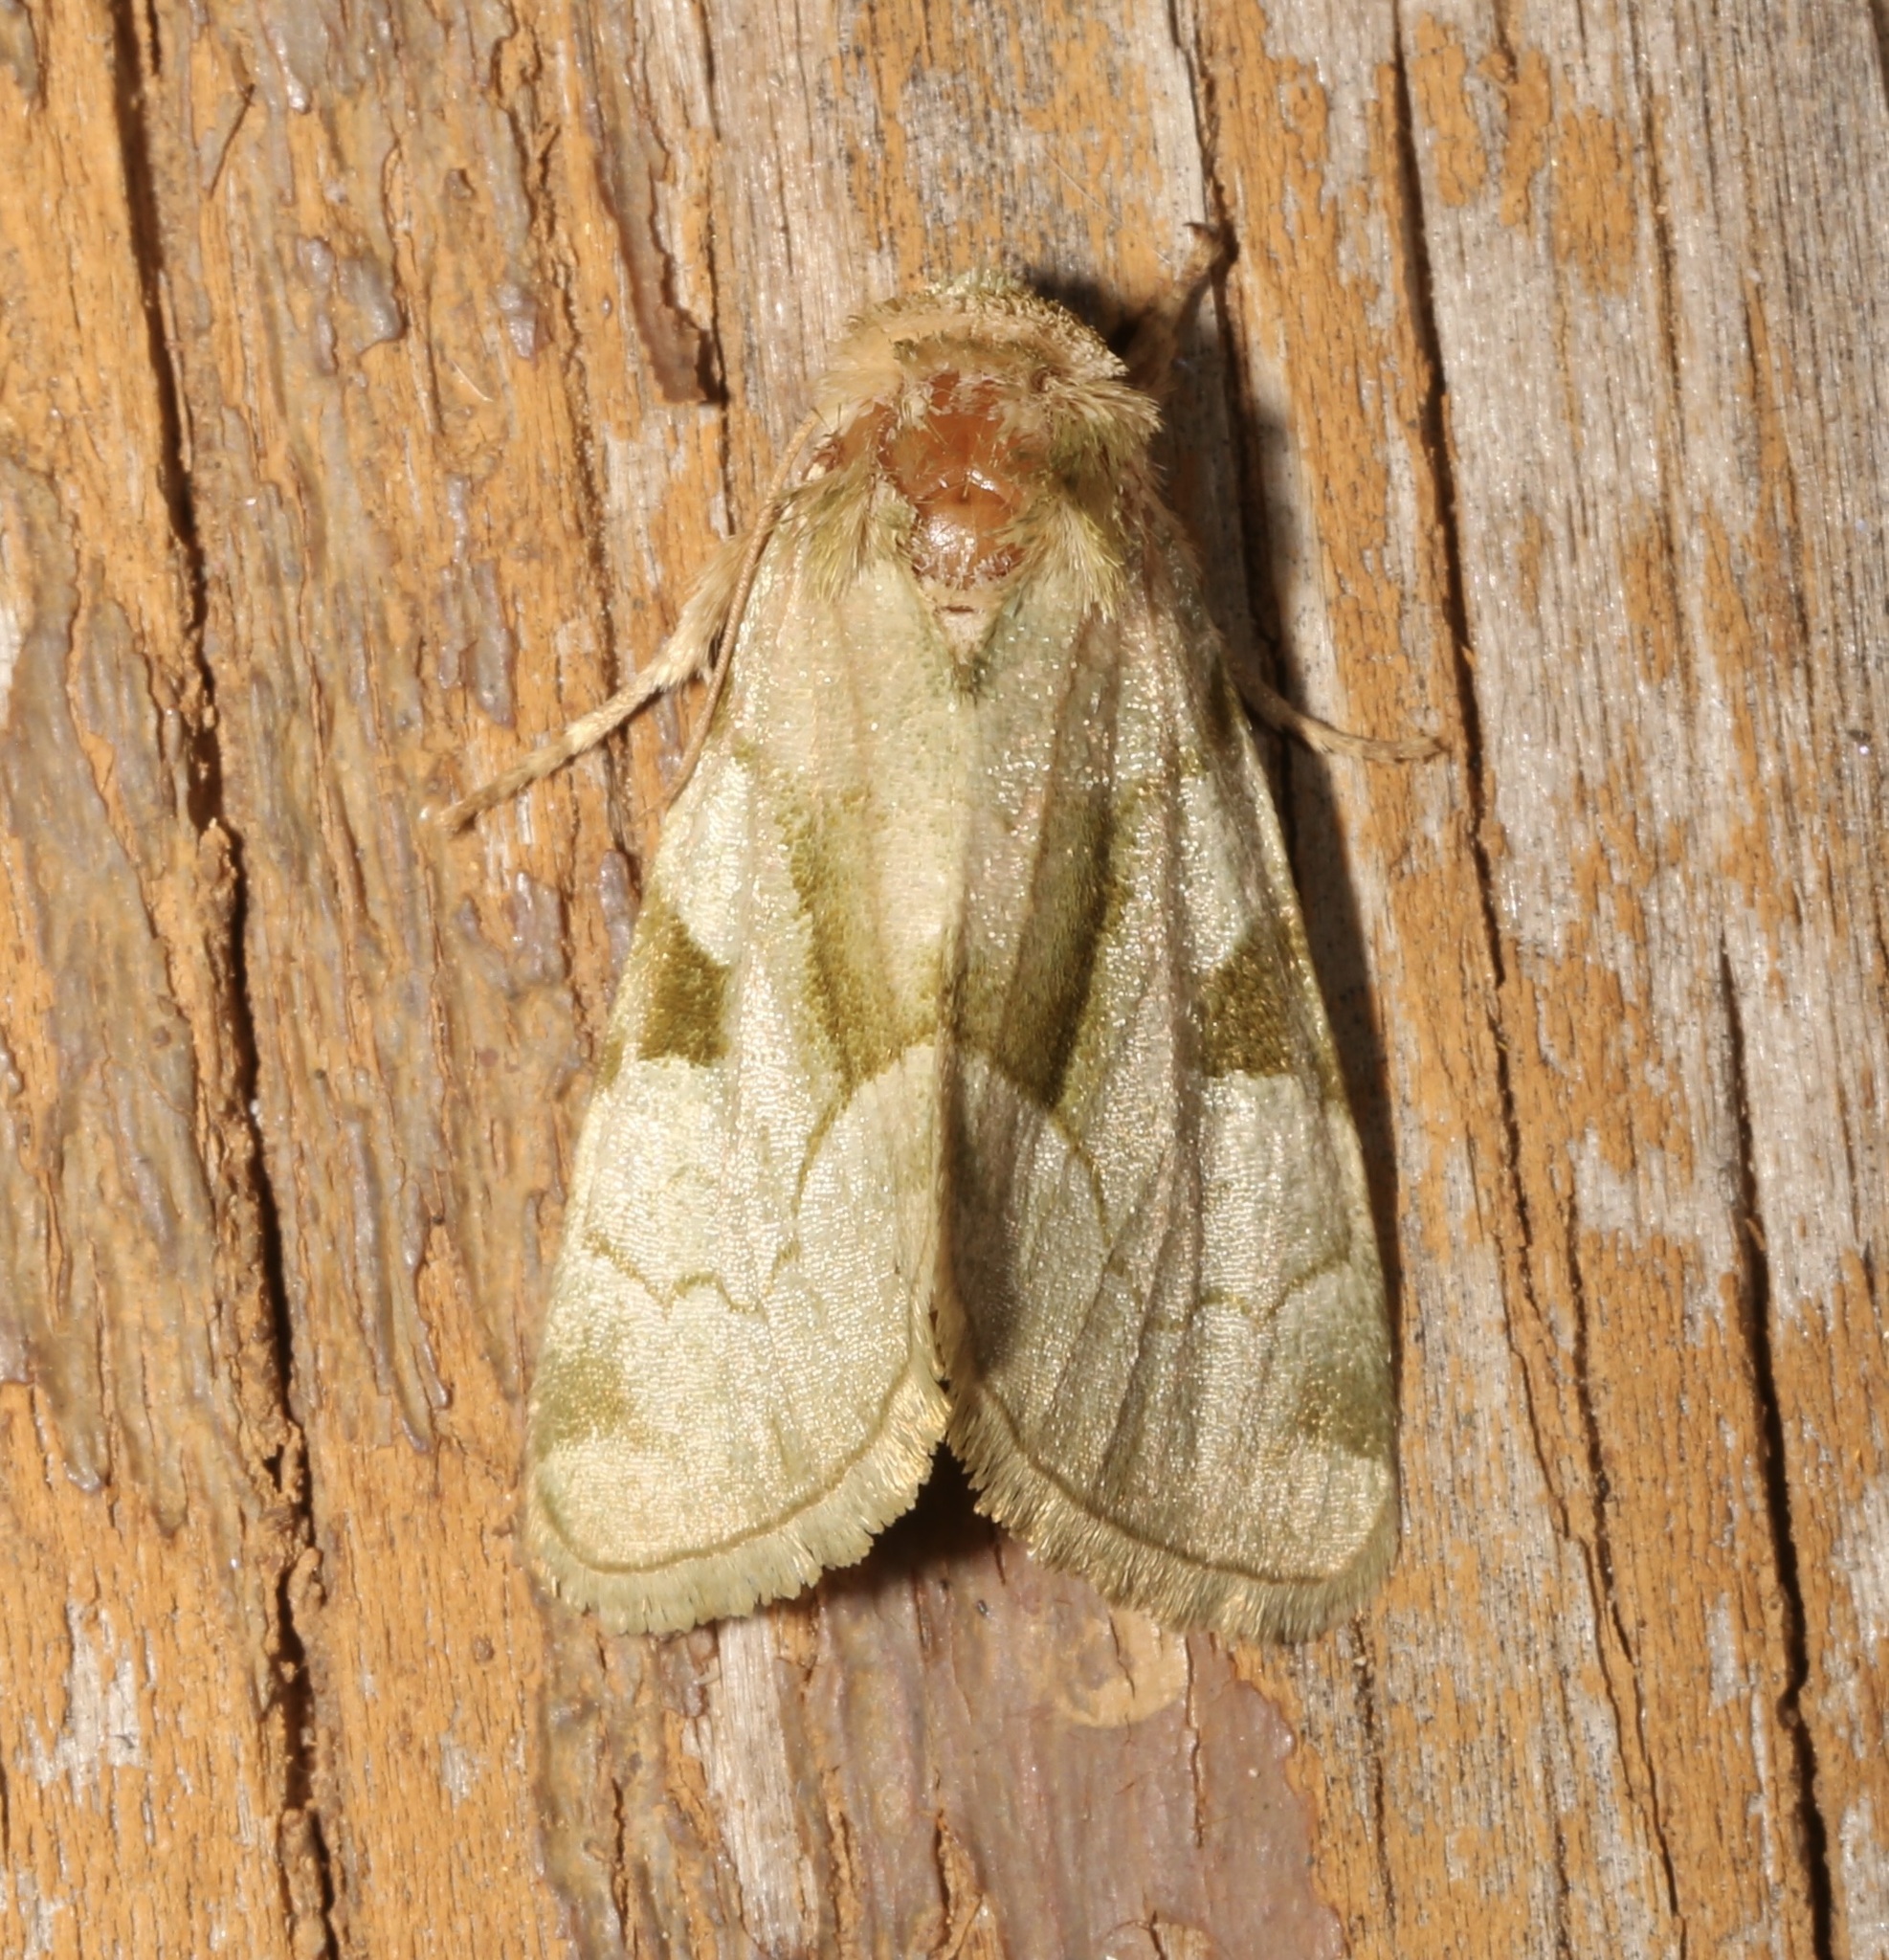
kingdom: Animalia
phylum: Arthropoda
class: Insecta
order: Lepidoptera
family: Noctuidae
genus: Oslaria
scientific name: Oslaria viridifera
